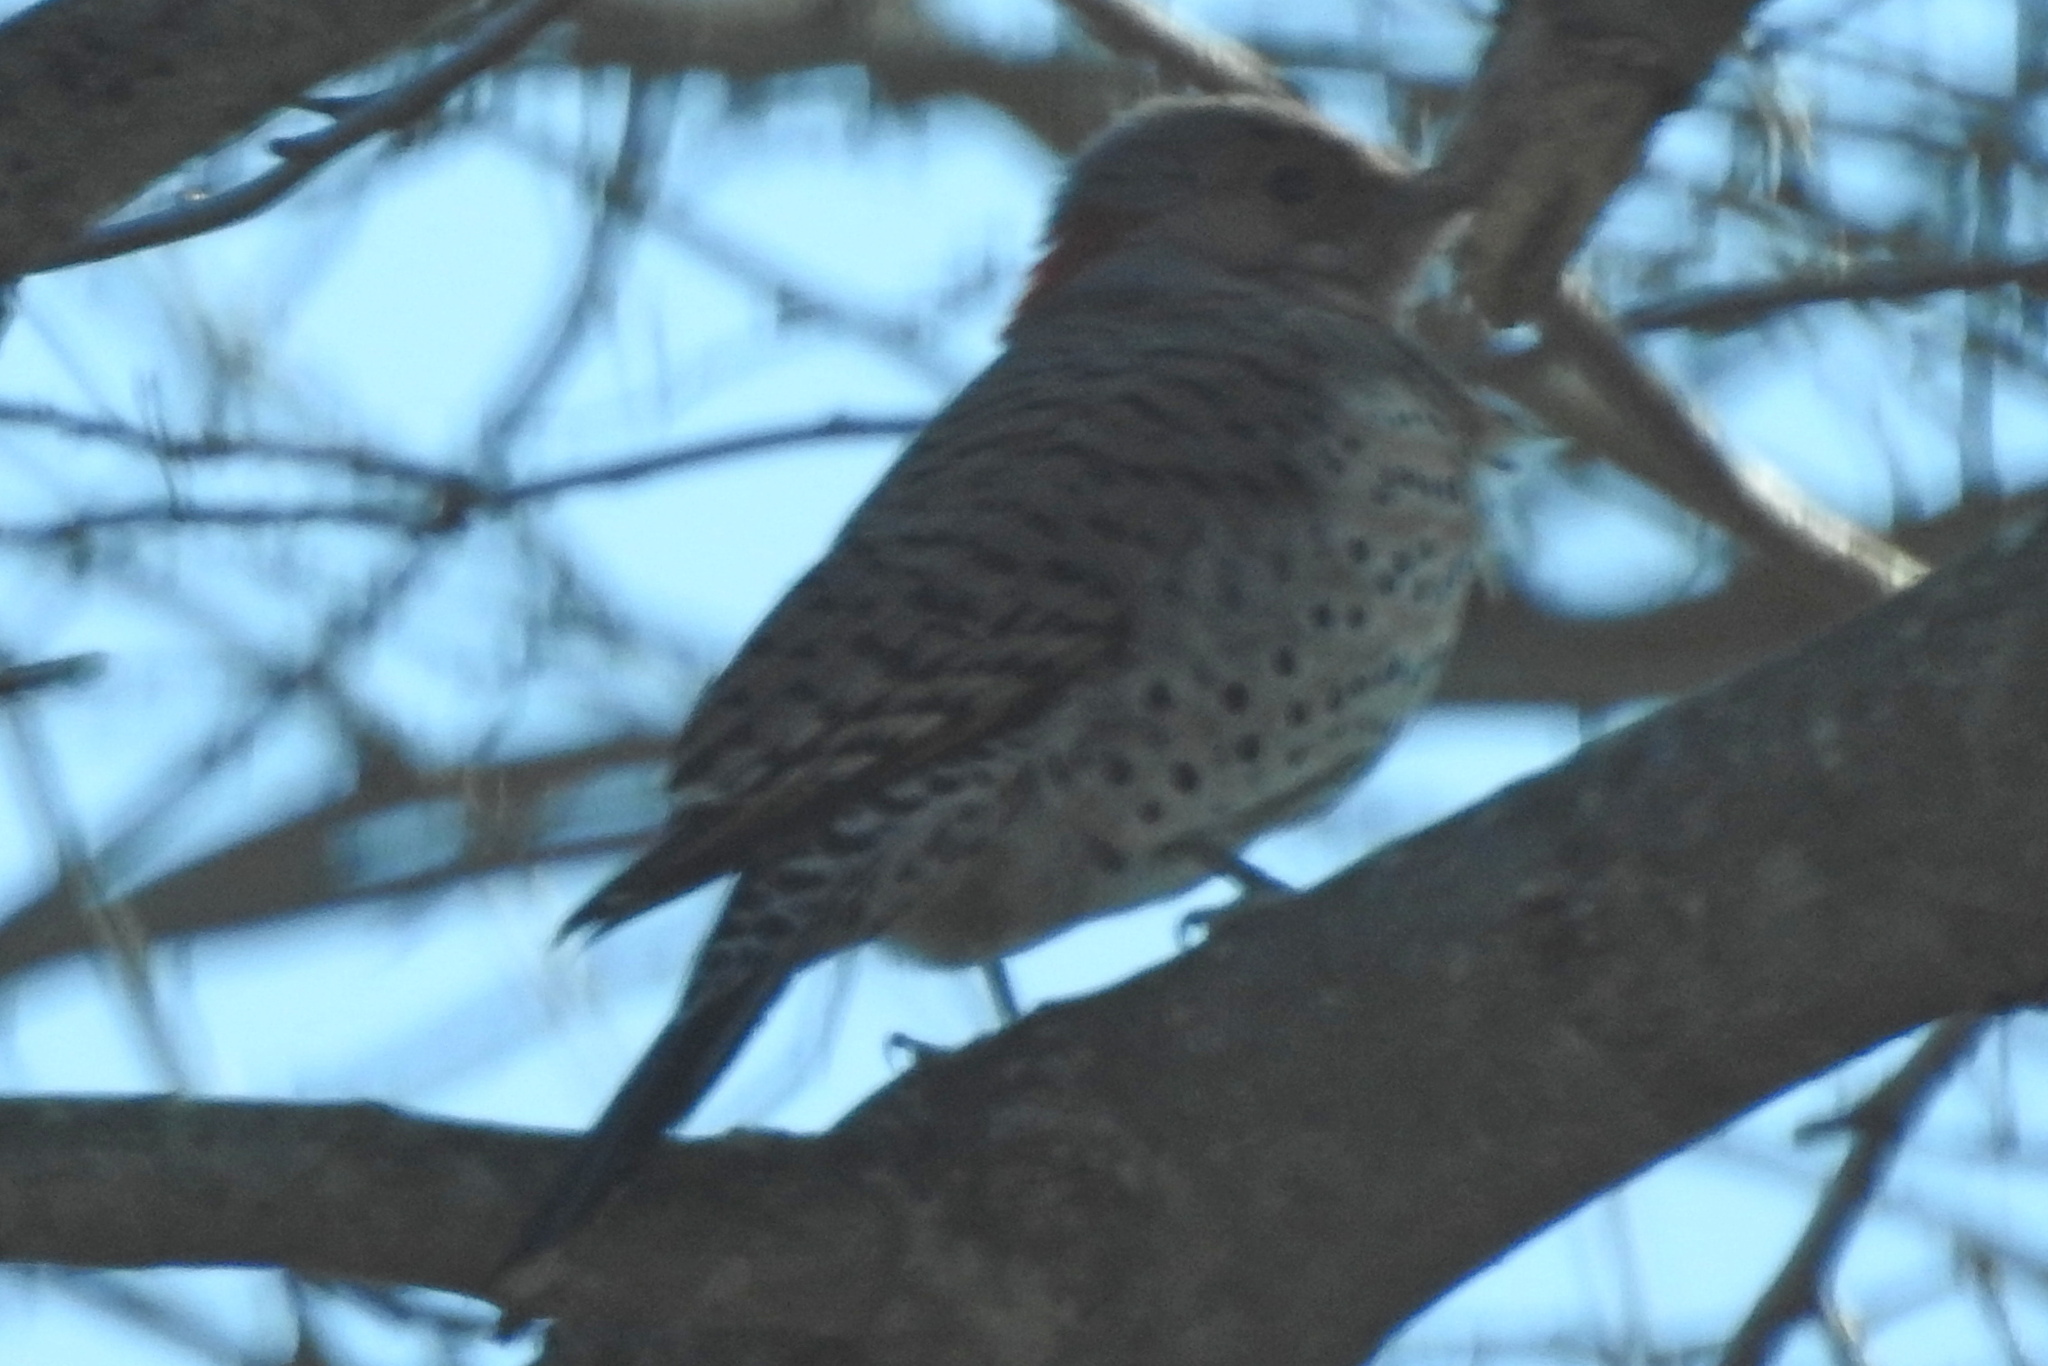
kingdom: Animalia
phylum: Chordata
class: Aves
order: Piciformes
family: Picidae
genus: Colaptes
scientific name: Colaptes auratus
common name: Northern flicker
